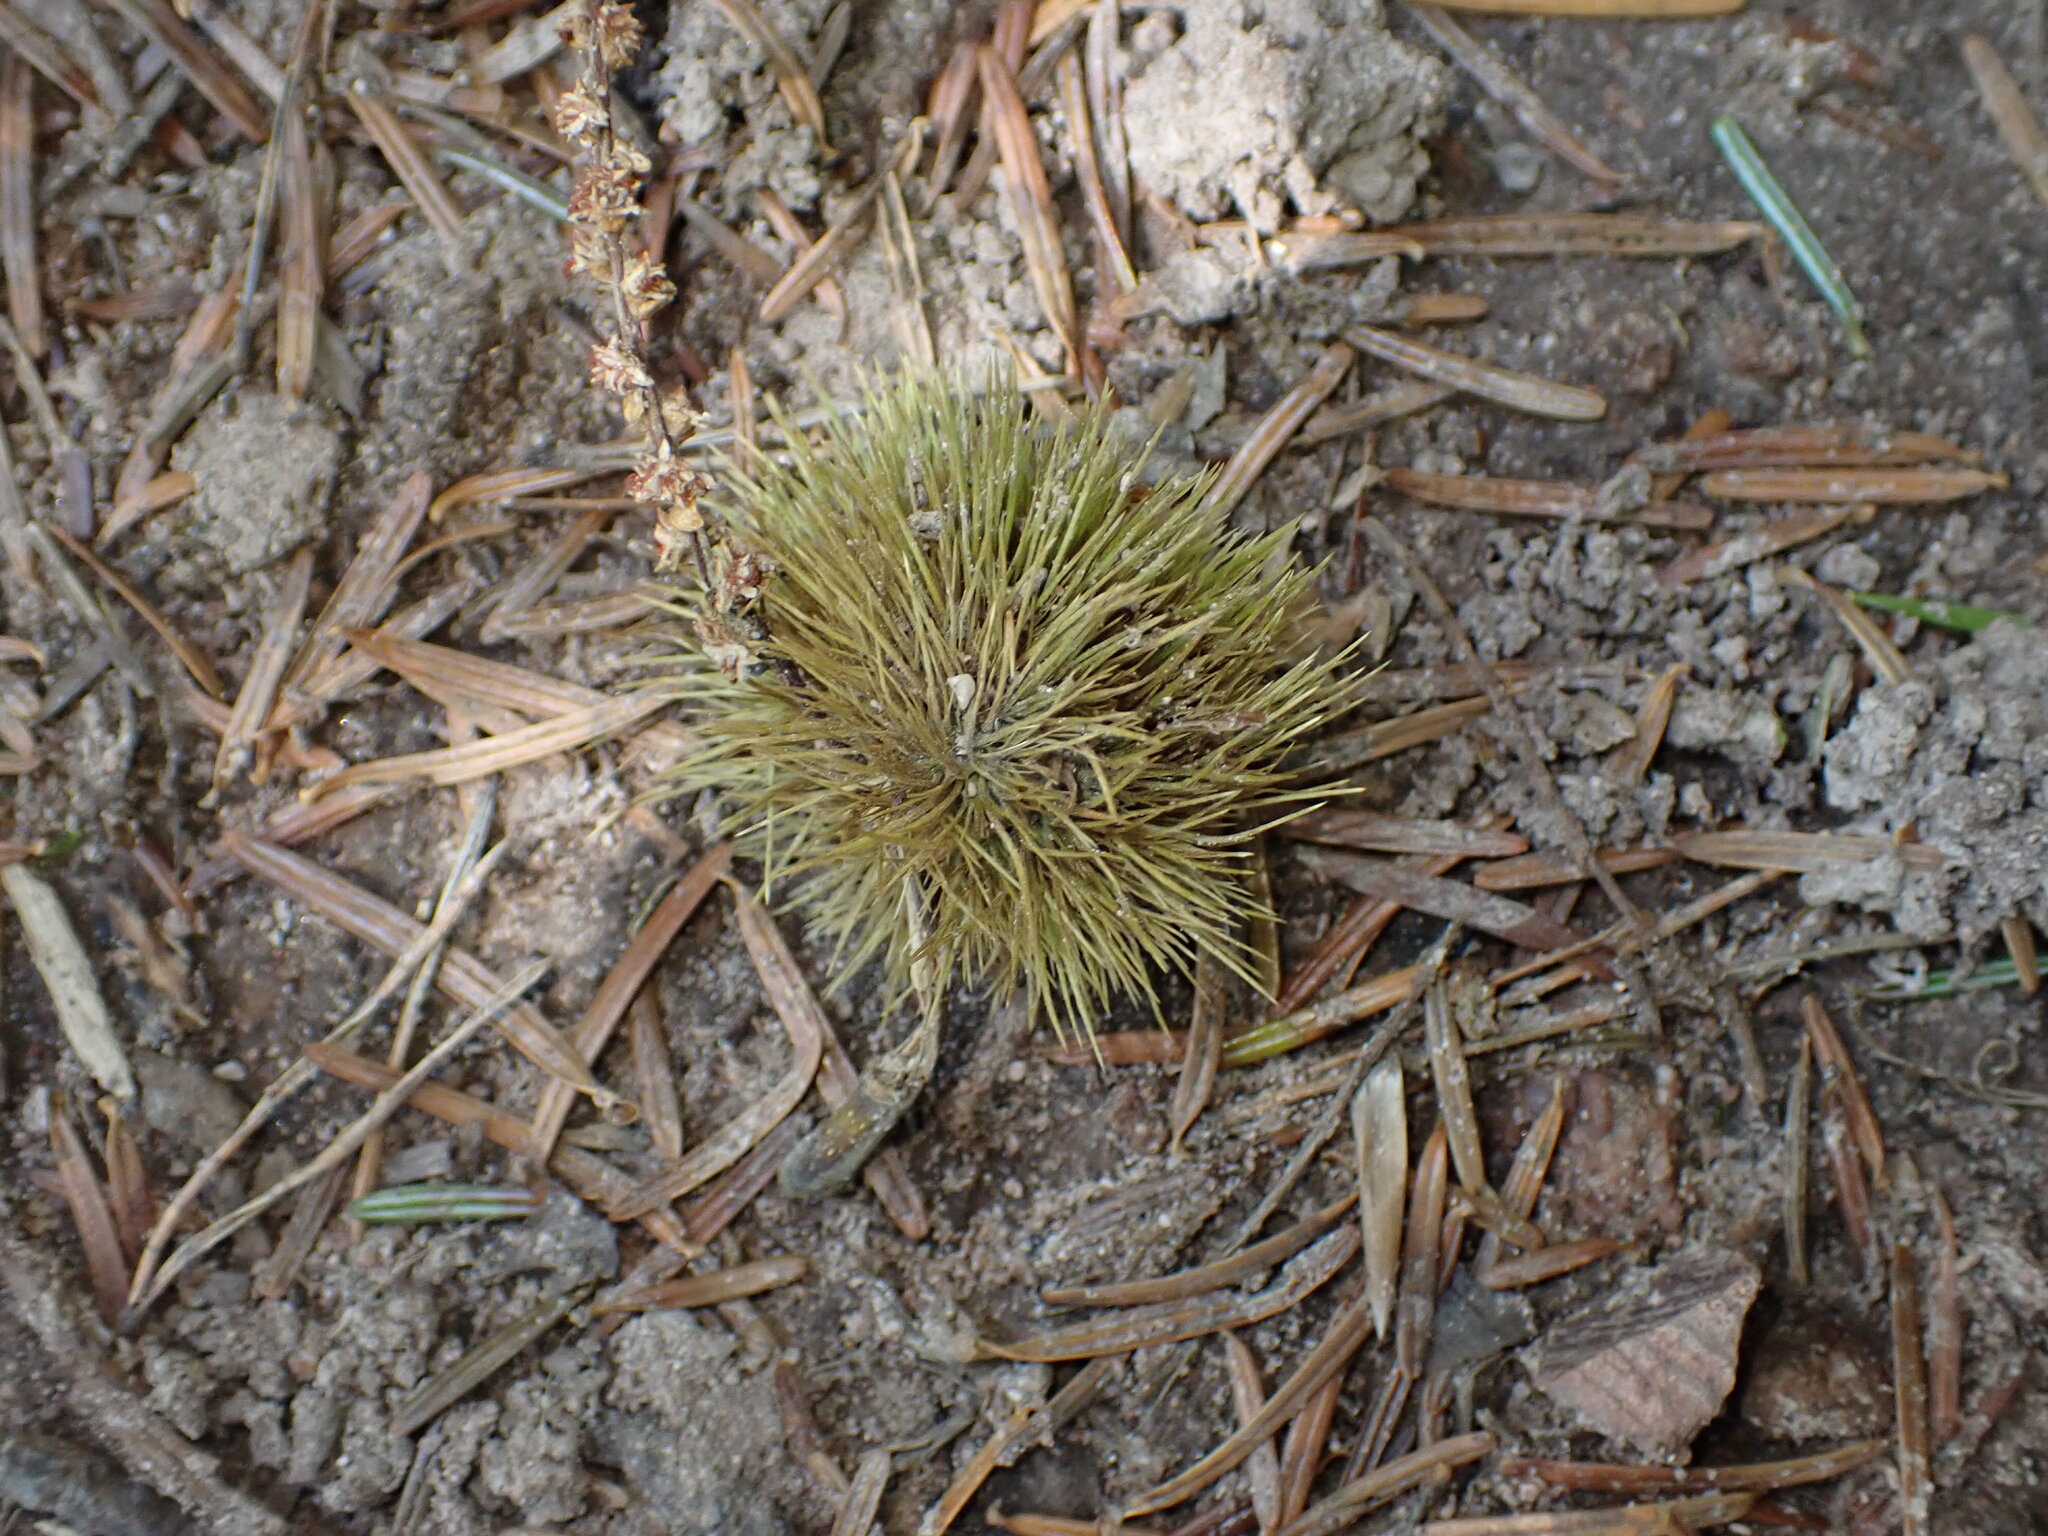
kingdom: Plantae
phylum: Tracheophyta
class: Magnoliopsida
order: Fagales
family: Fagaceae
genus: Castanea
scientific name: Castanea sativa
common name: Sweet chestnut
